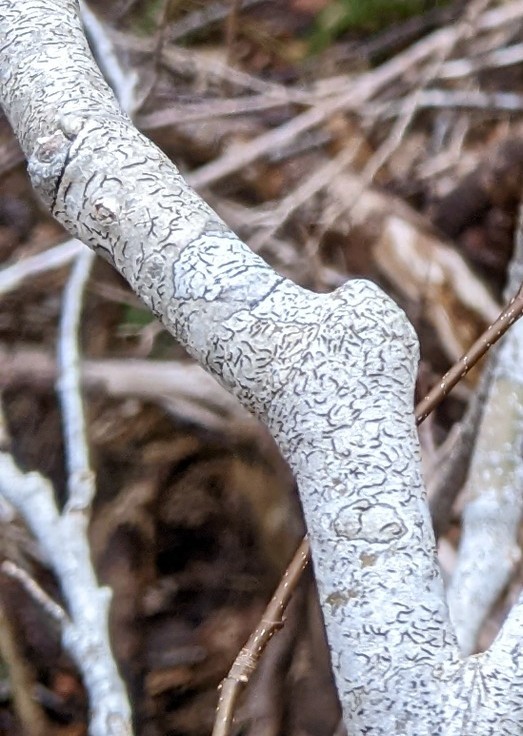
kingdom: Fungi
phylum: Ascomycota
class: Lecanoromycetes
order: Ostropales
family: Graphidaceae
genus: Graphis
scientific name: Graphis scripta
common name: Script lichen
